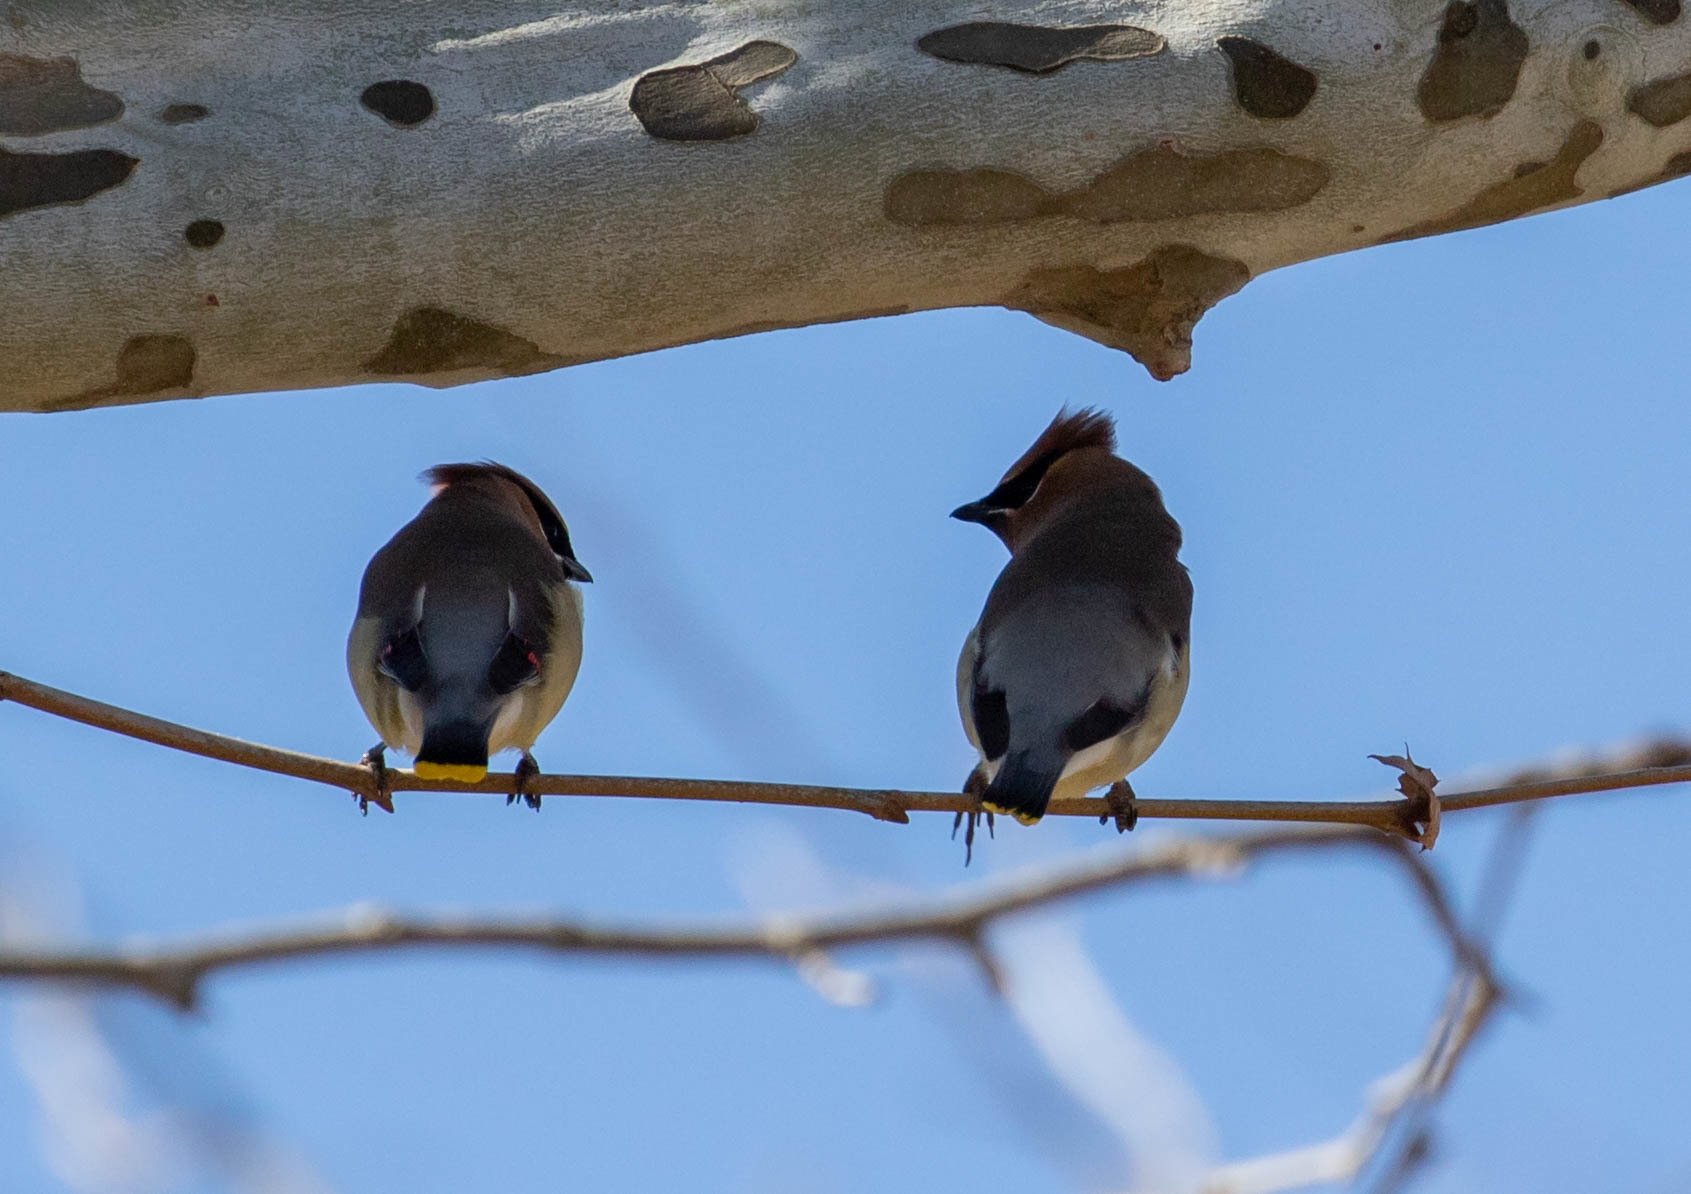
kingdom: Animalia
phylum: Chordata
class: Aves
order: Passeriformes
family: Bombycillidae
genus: Bombycilla
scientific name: Bombycilla cedrorum
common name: Cedar waxwing
